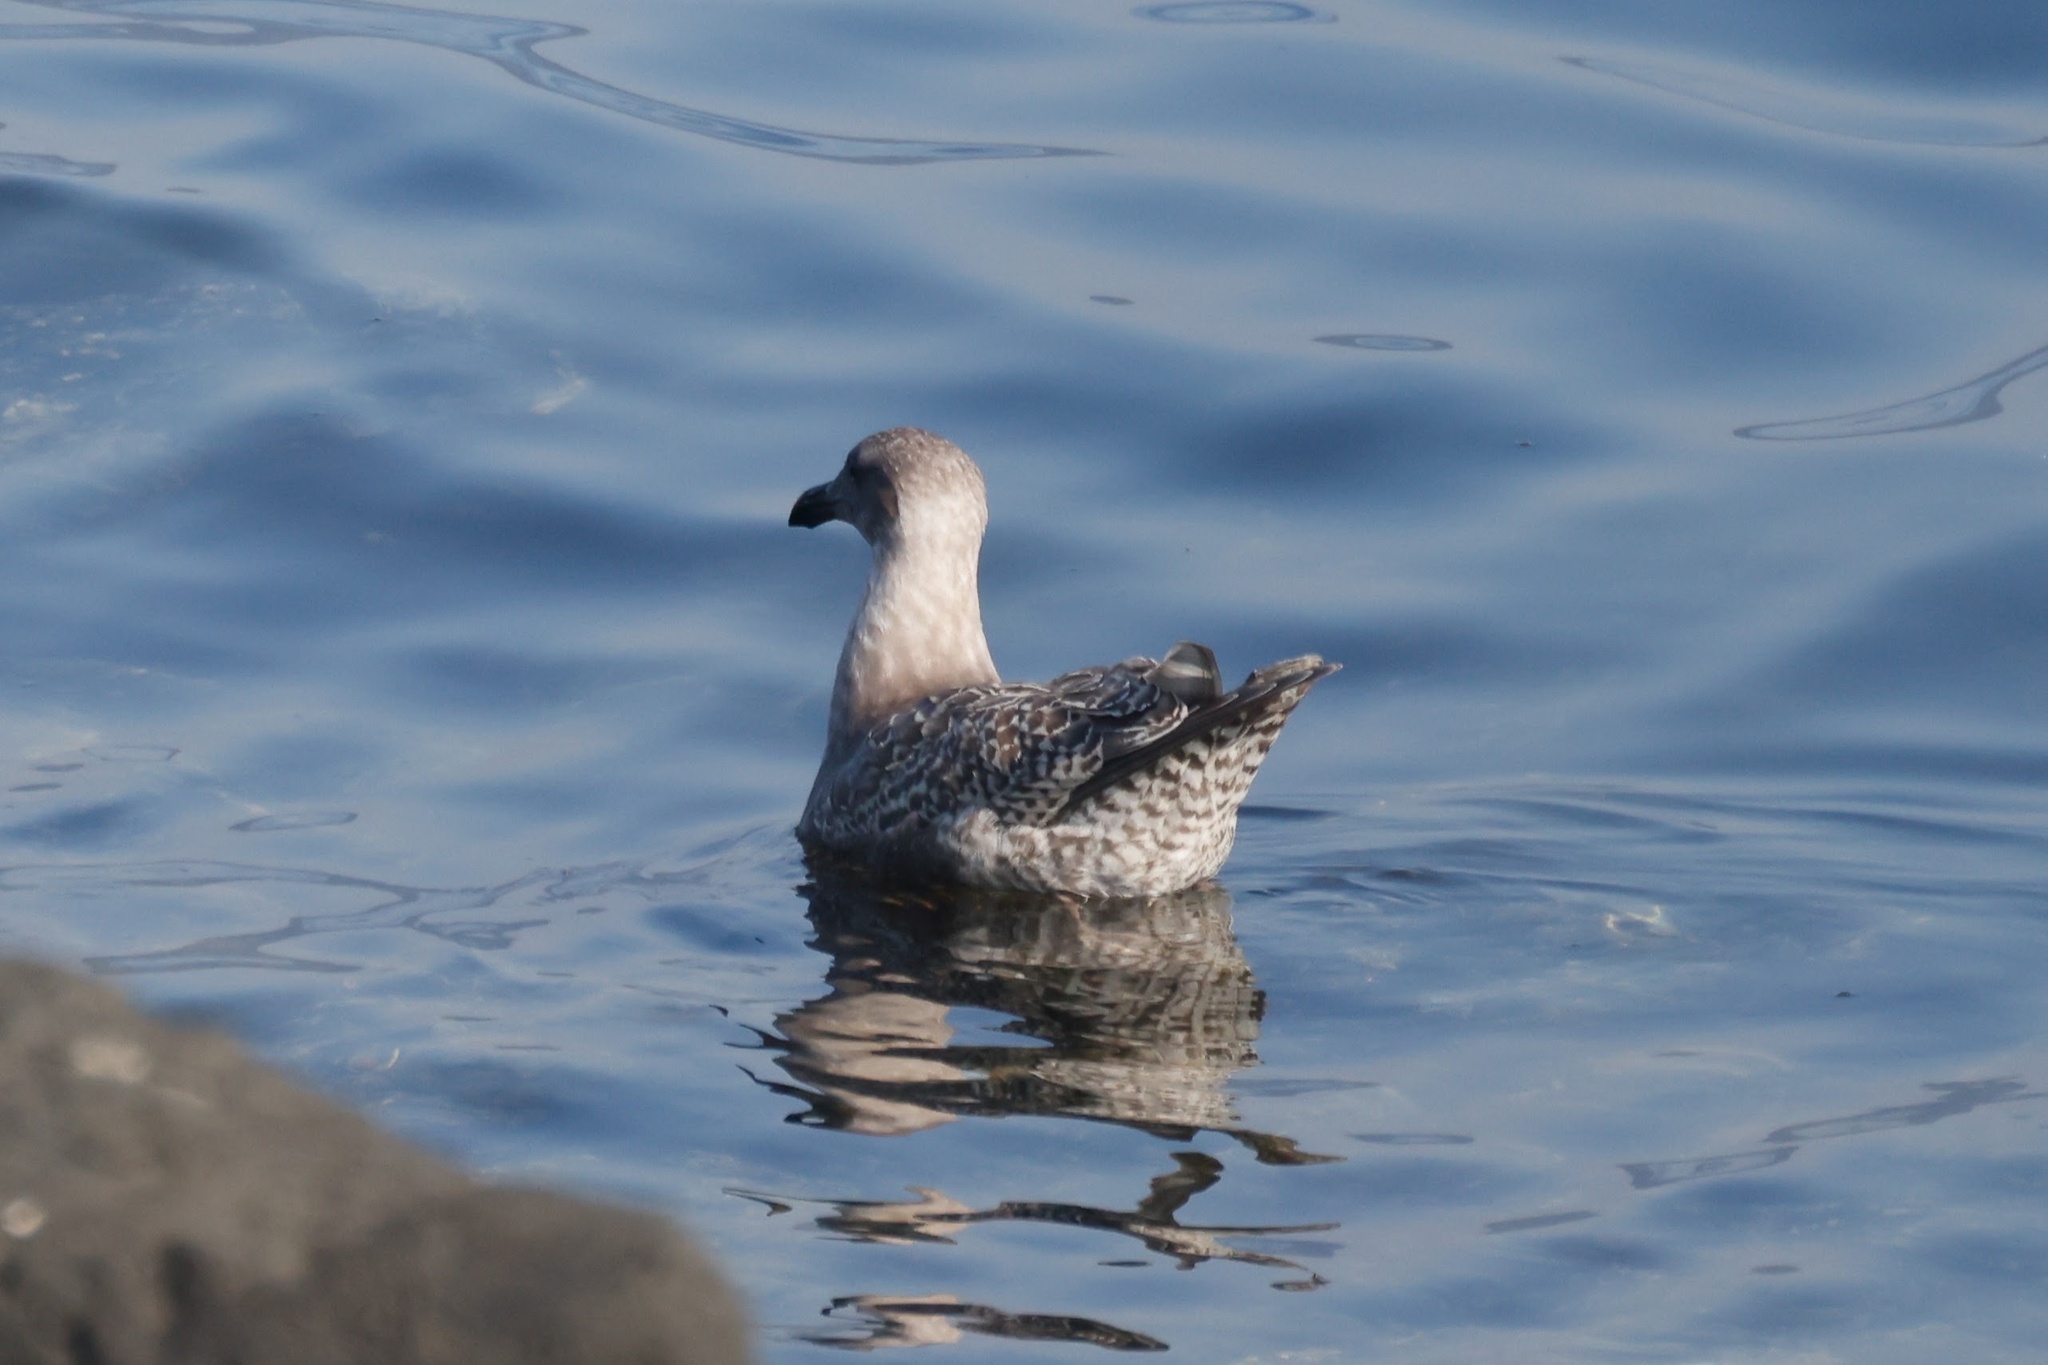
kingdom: Animalia
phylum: Chordata
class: Aves
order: Charadriiformes
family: Laridae
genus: Larus
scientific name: Larus glaucescens
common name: Glaucous-winged gull
